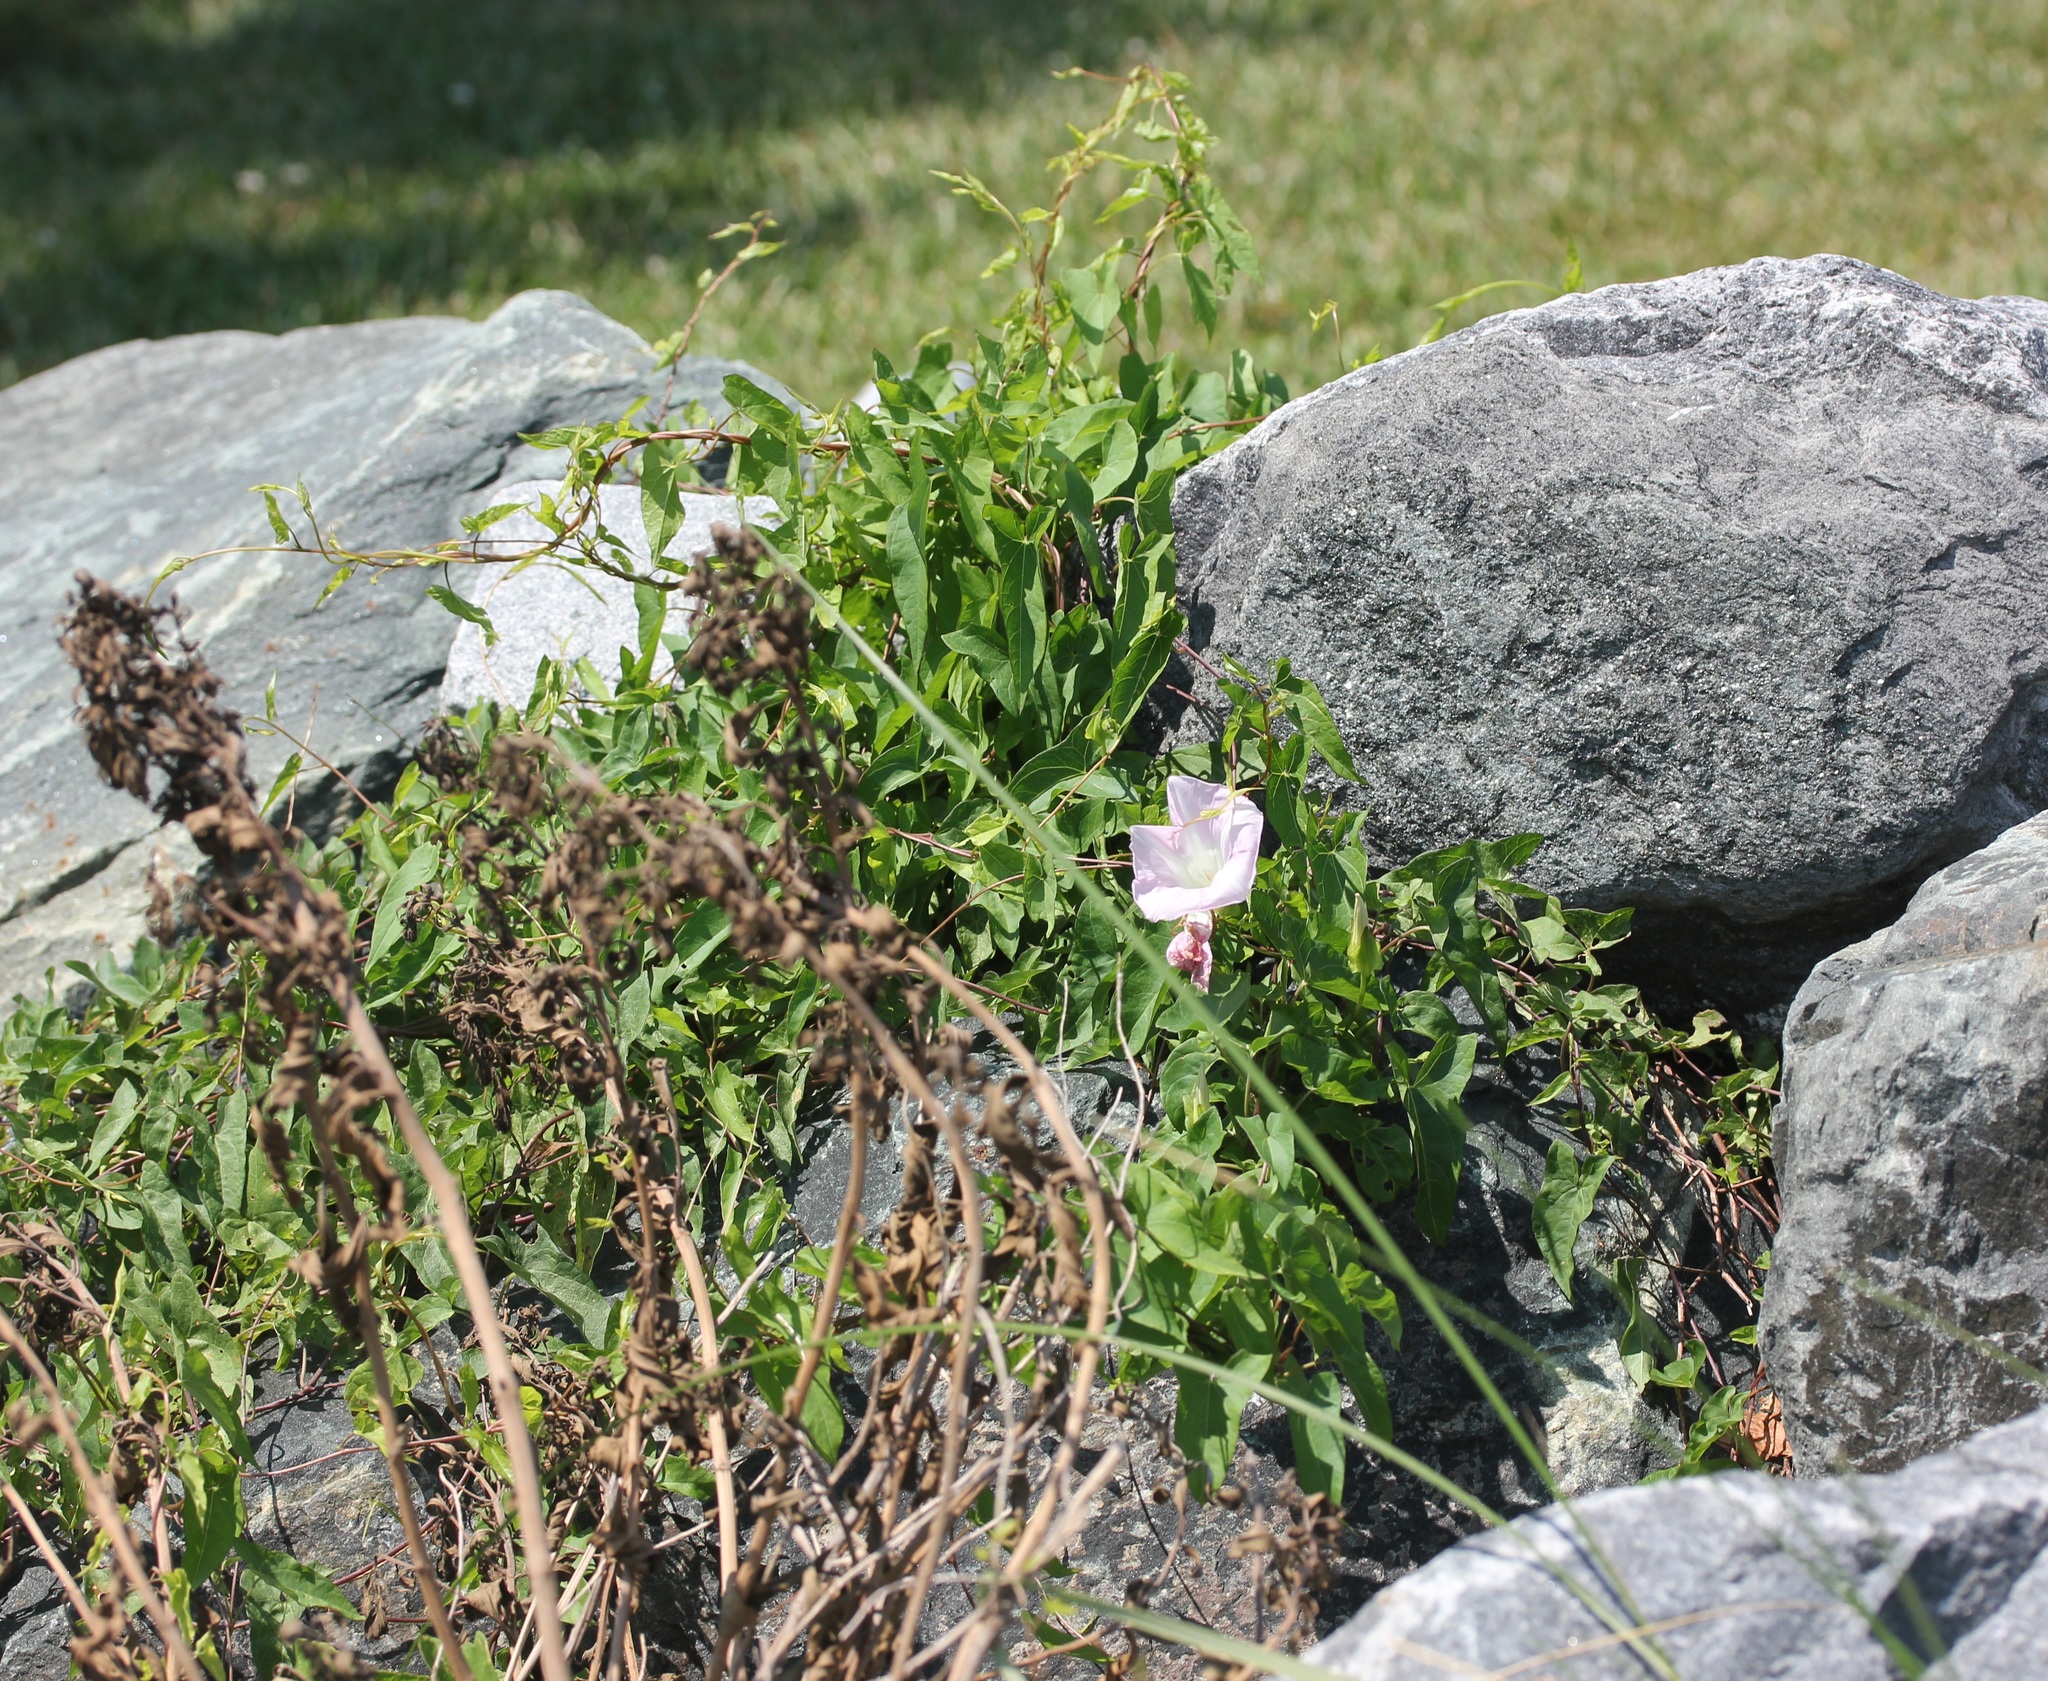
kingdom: Plantae
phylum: Tracheophyta
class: Magnoliopsida
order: Solanales
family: Convolvulaceae
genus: Calystegia
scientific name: Calystegia sepium
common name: Hedge bindweed
